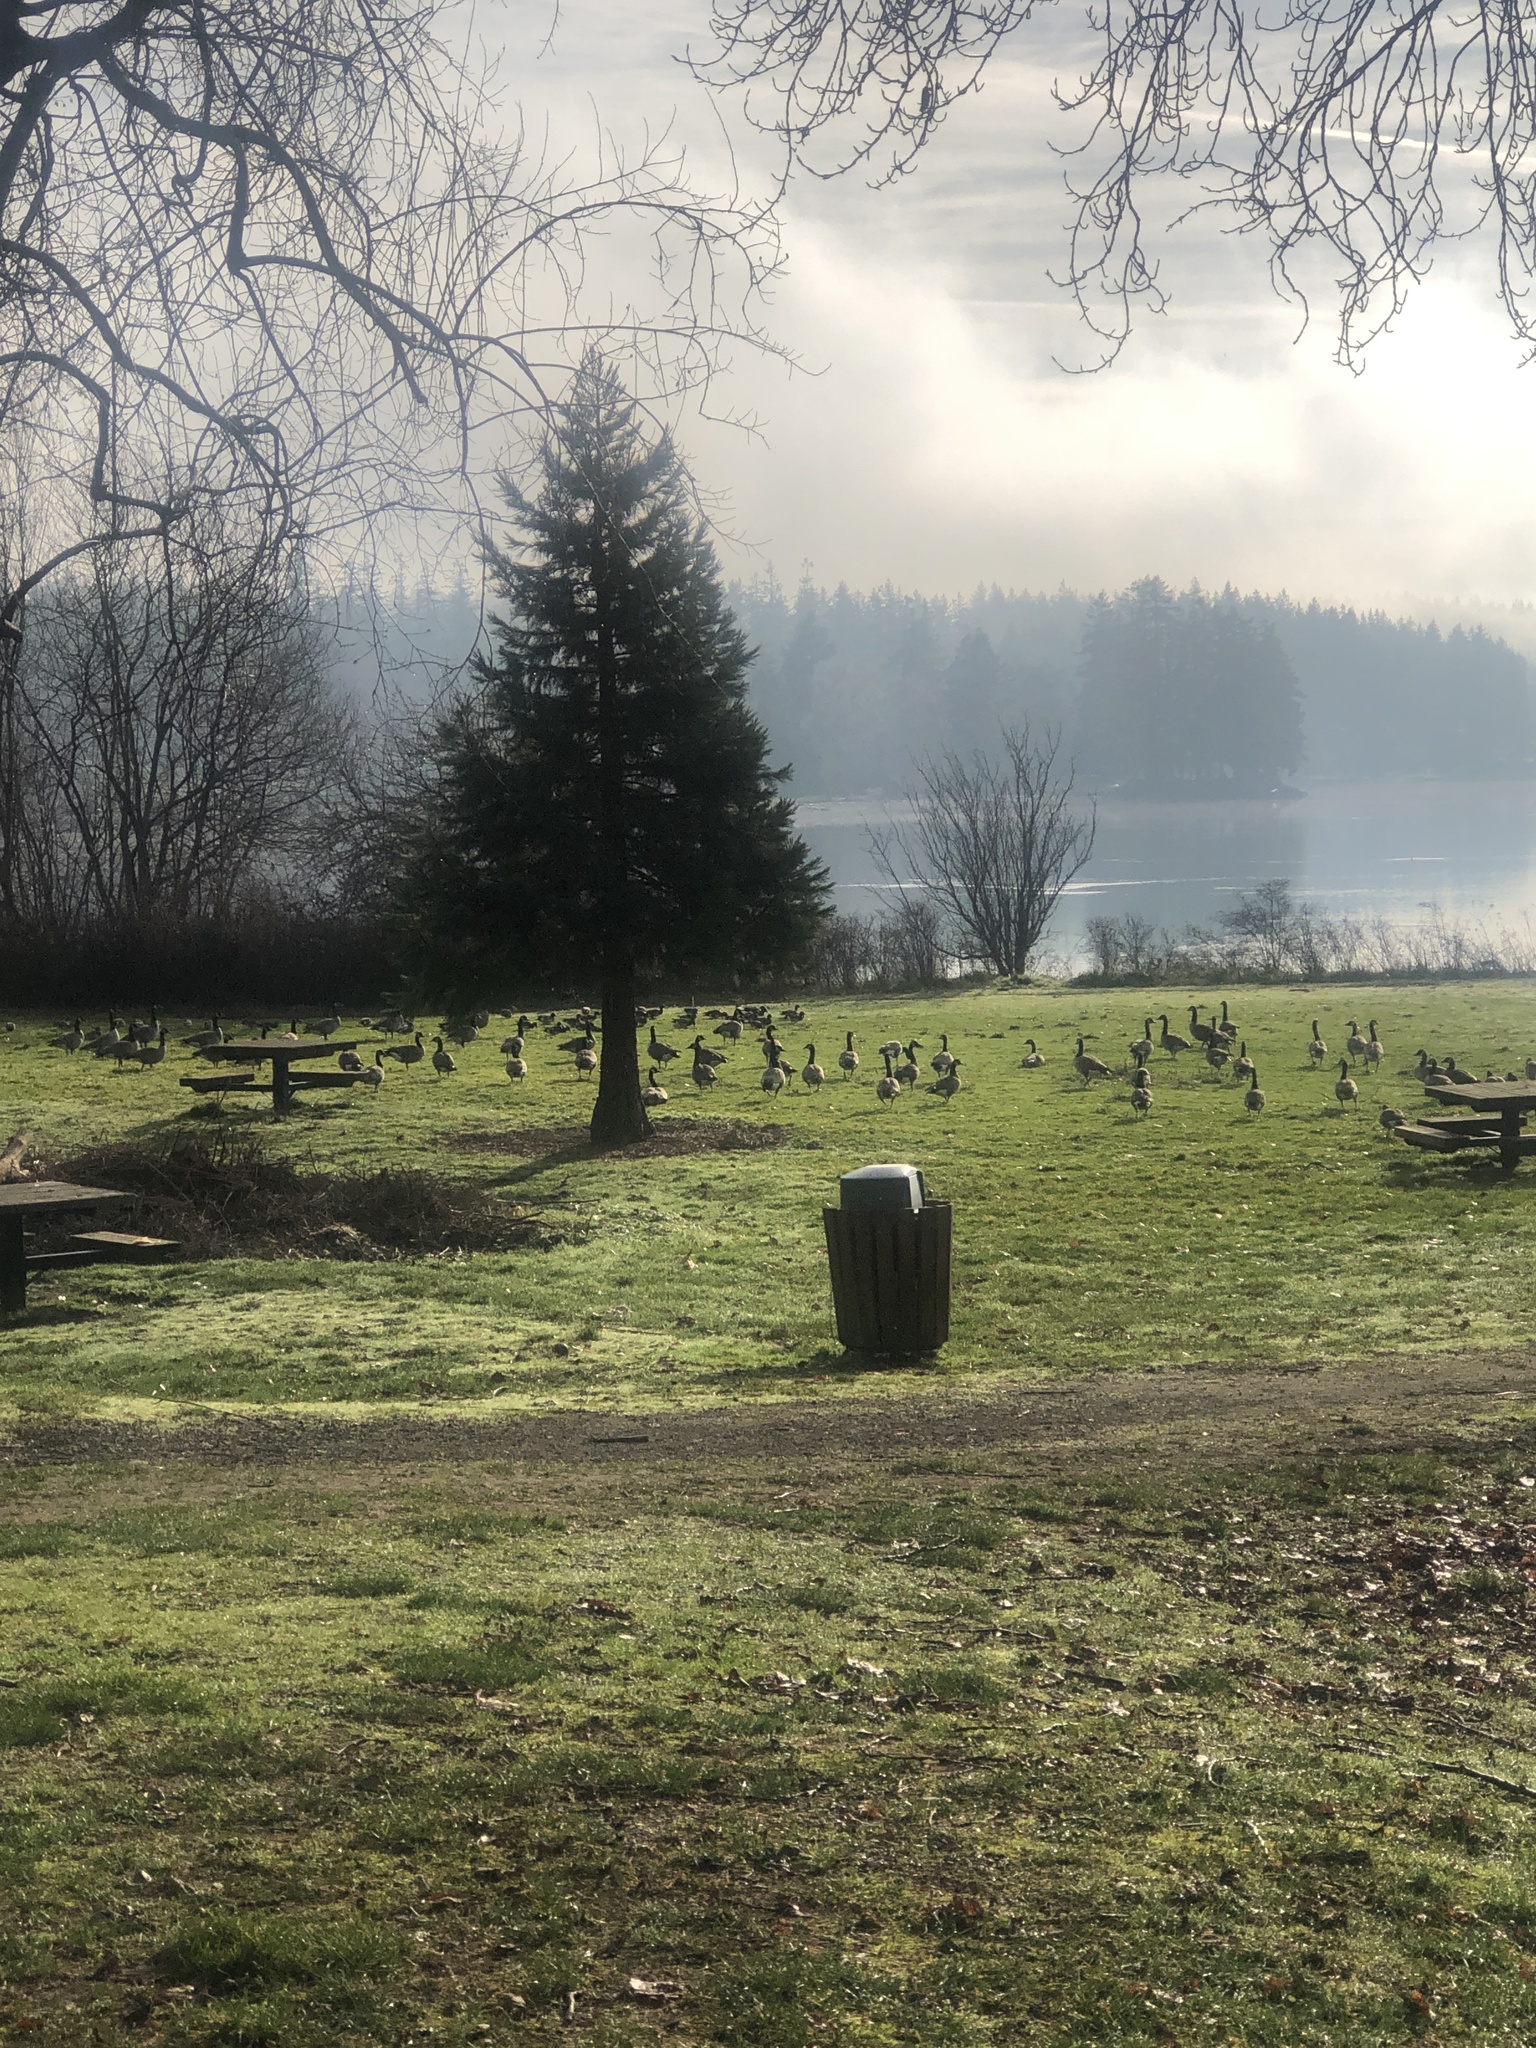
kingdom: Animalia
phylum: Chordata
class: Aves
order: Anseriformes
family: Anatidae
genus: Branta
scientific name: Branta canadensis
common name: Canada goose
